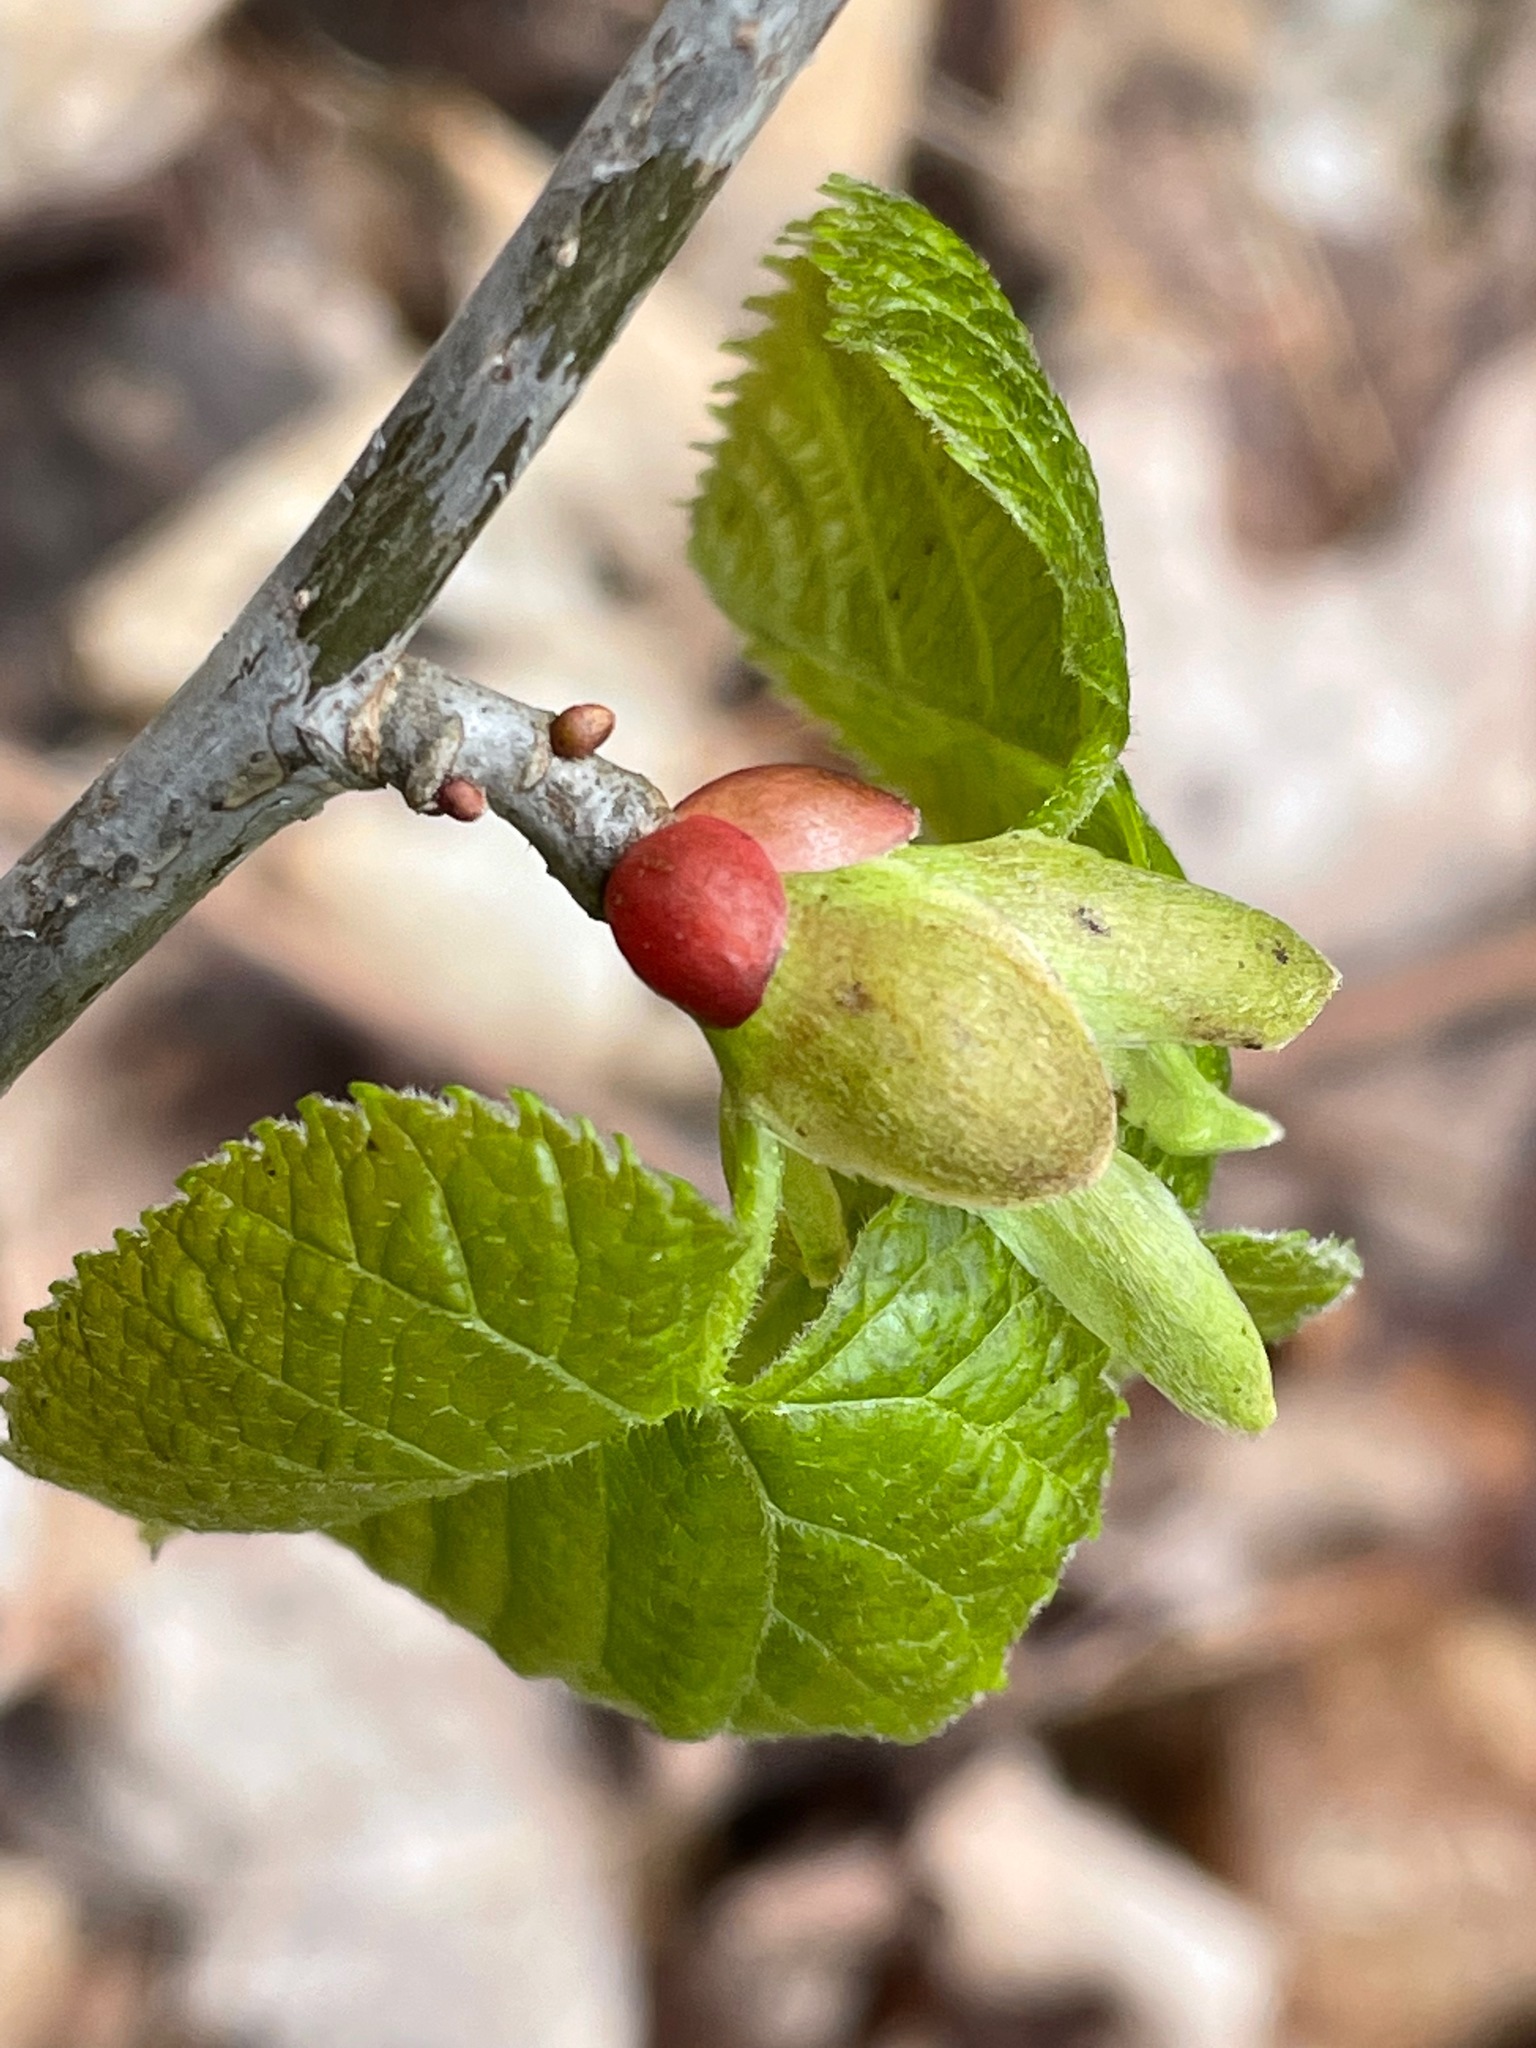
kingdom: Plantae
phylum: Tracheophyta
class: Magnoliopsida
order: Malvales
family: Malvaceae
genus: Tilia
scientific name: Tilia americana
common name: Basswood
